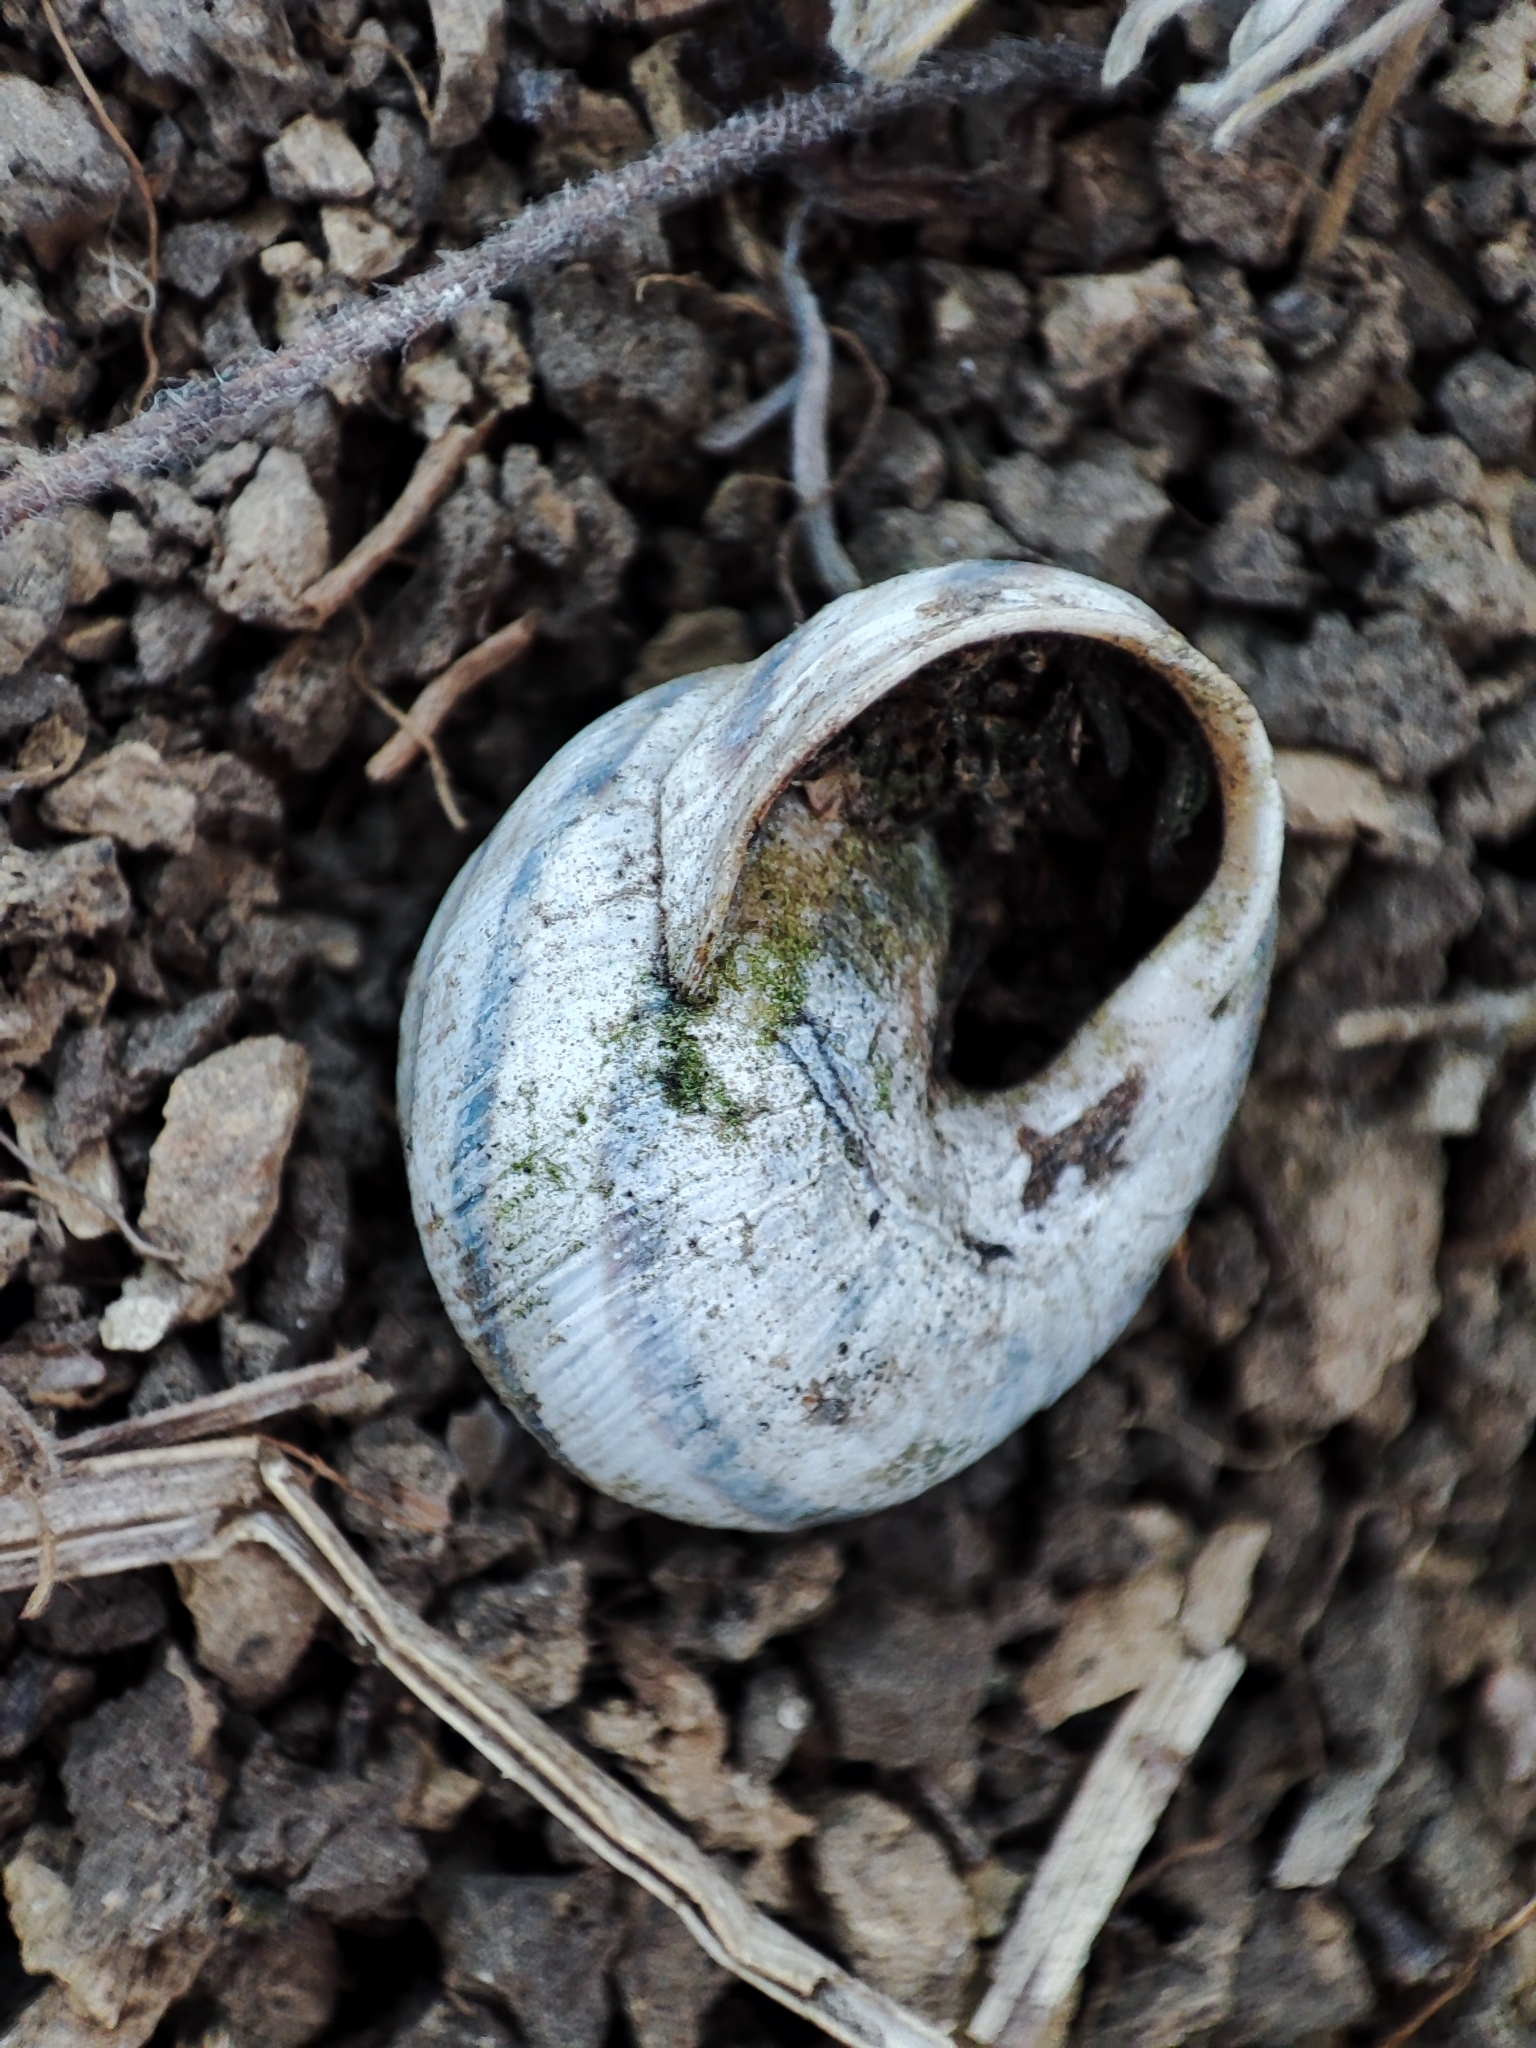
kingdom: Animalia
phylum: Mollusca
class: Gastropoda
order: Stylommatophora
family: Helicidae
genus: Caucasotachea
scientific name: Caucasotachea vindobonensis
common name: European helicid land snail
